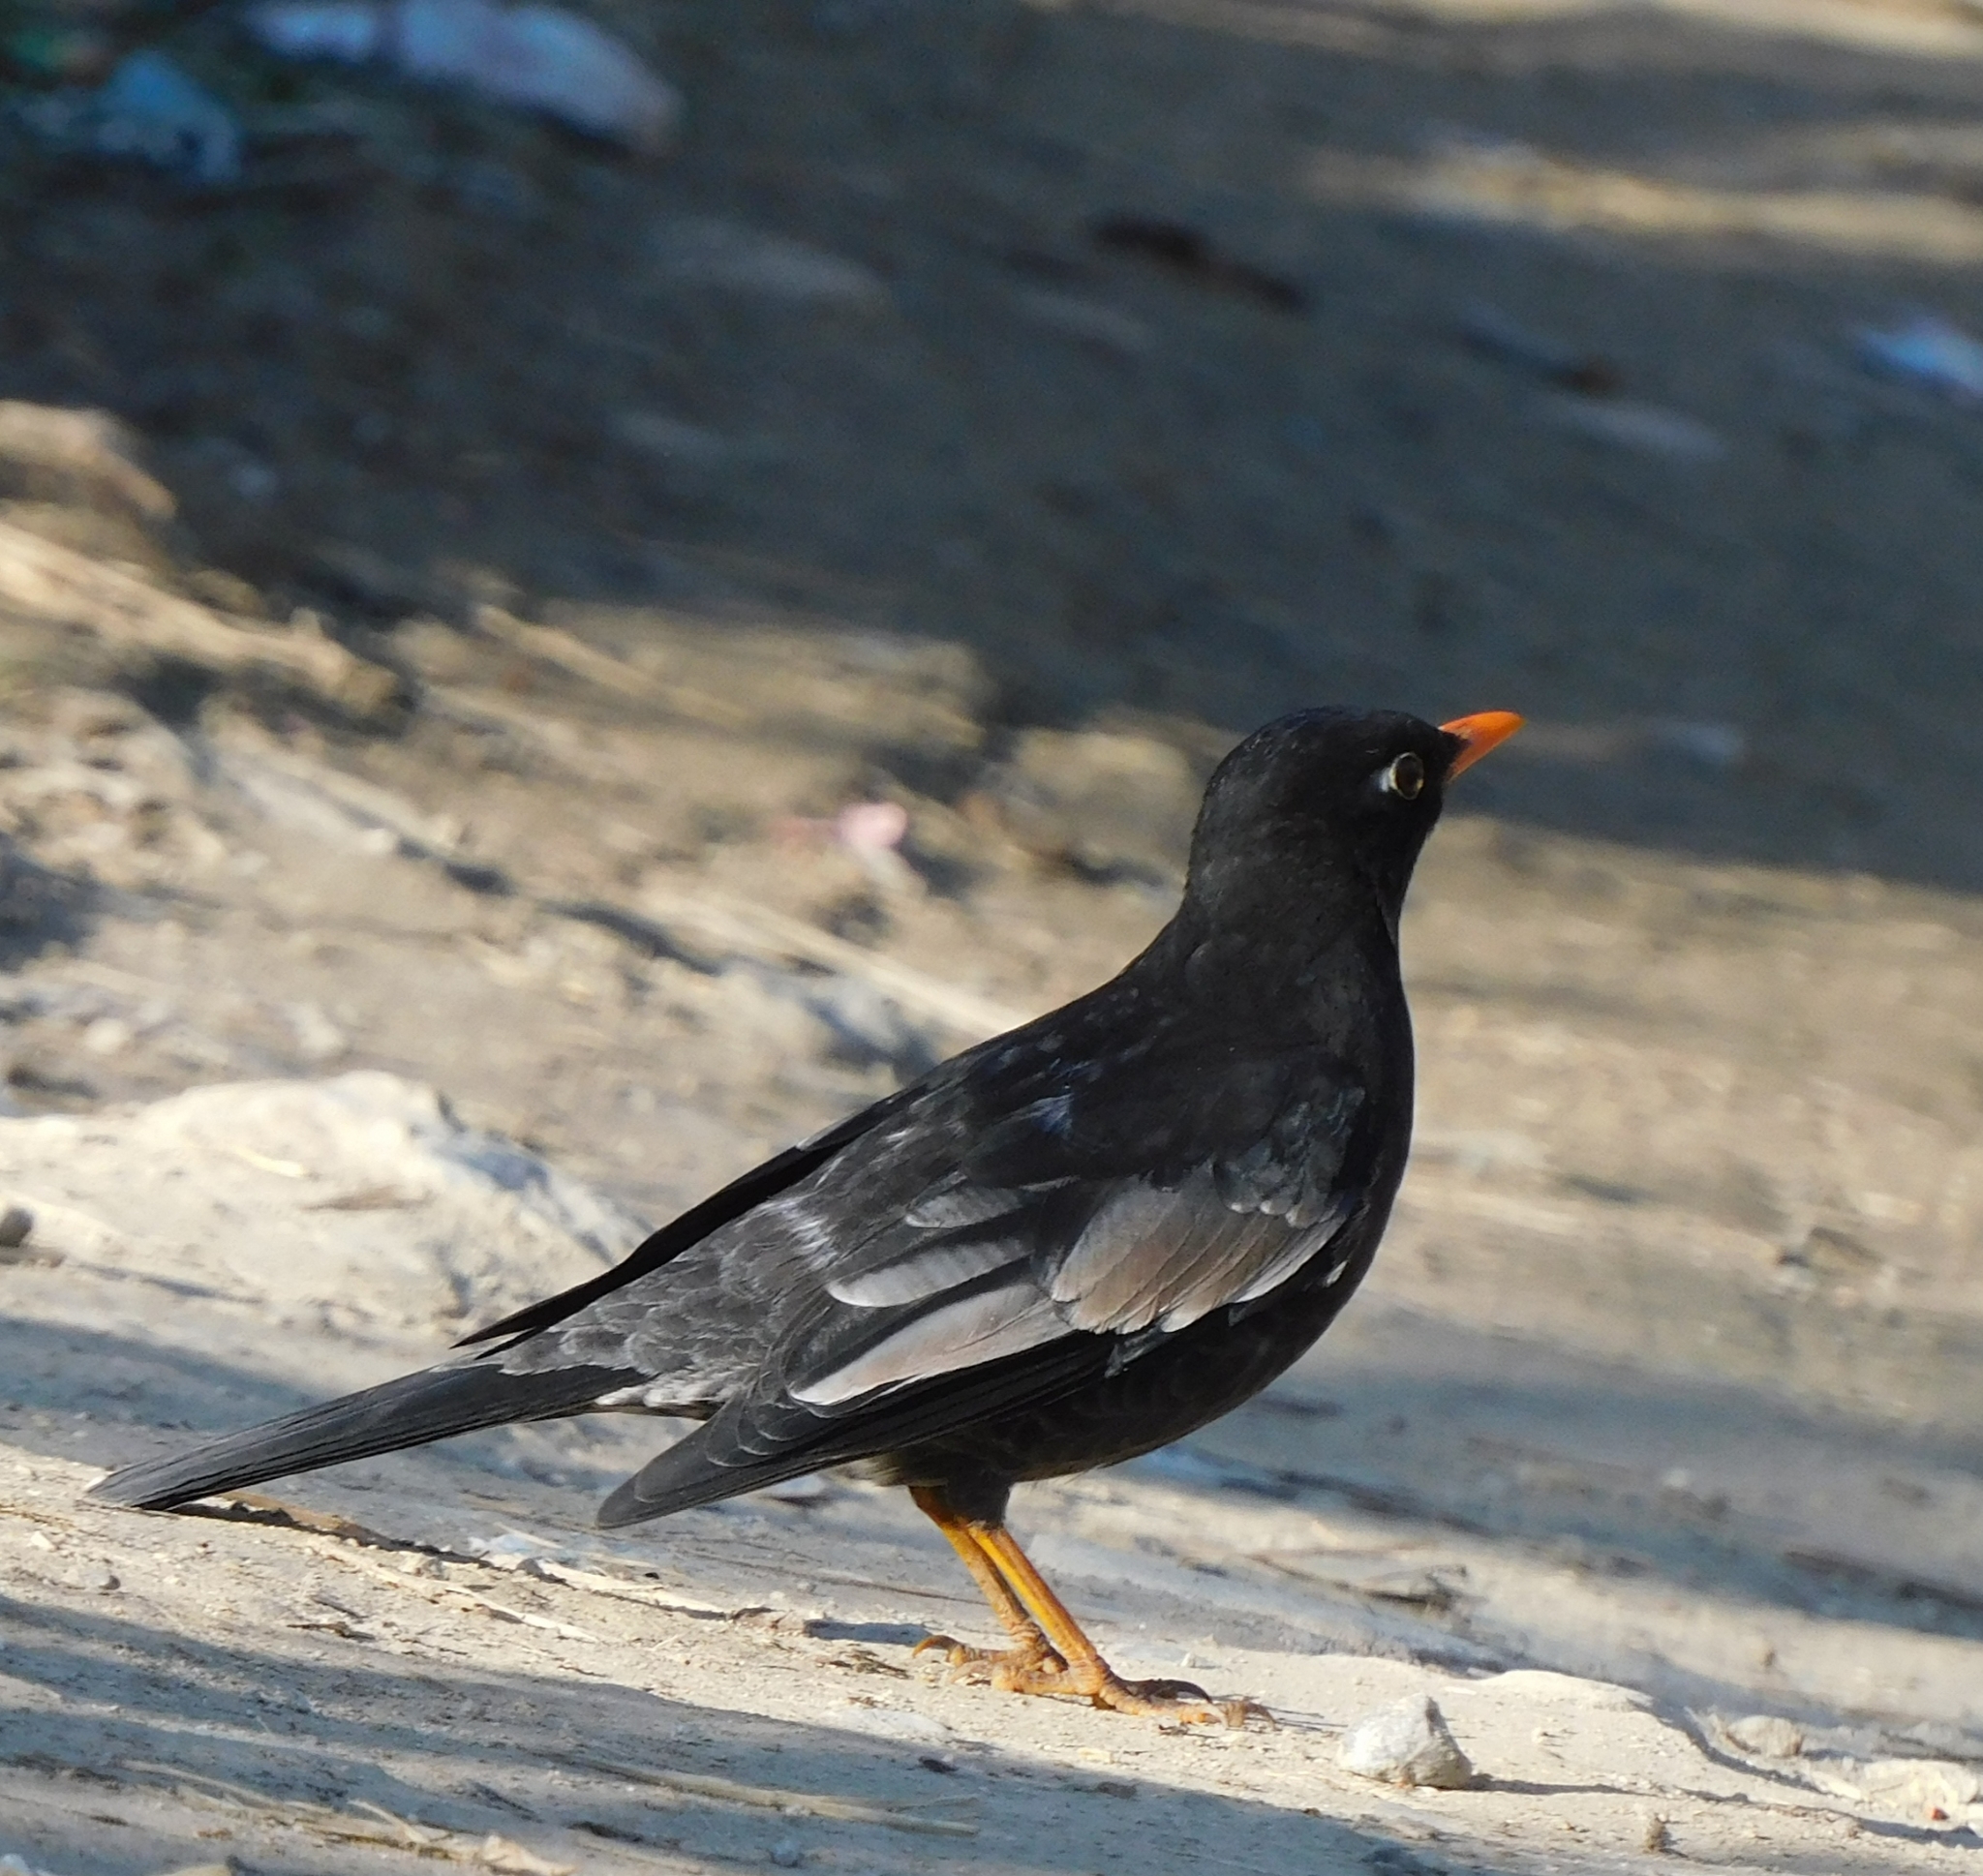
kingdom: Animalia
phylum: Chordata
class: Aves
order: Passeriformes
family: Turdidae
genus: Turdus
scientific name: Turdus boulboul
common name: Grey-winged blackbird
